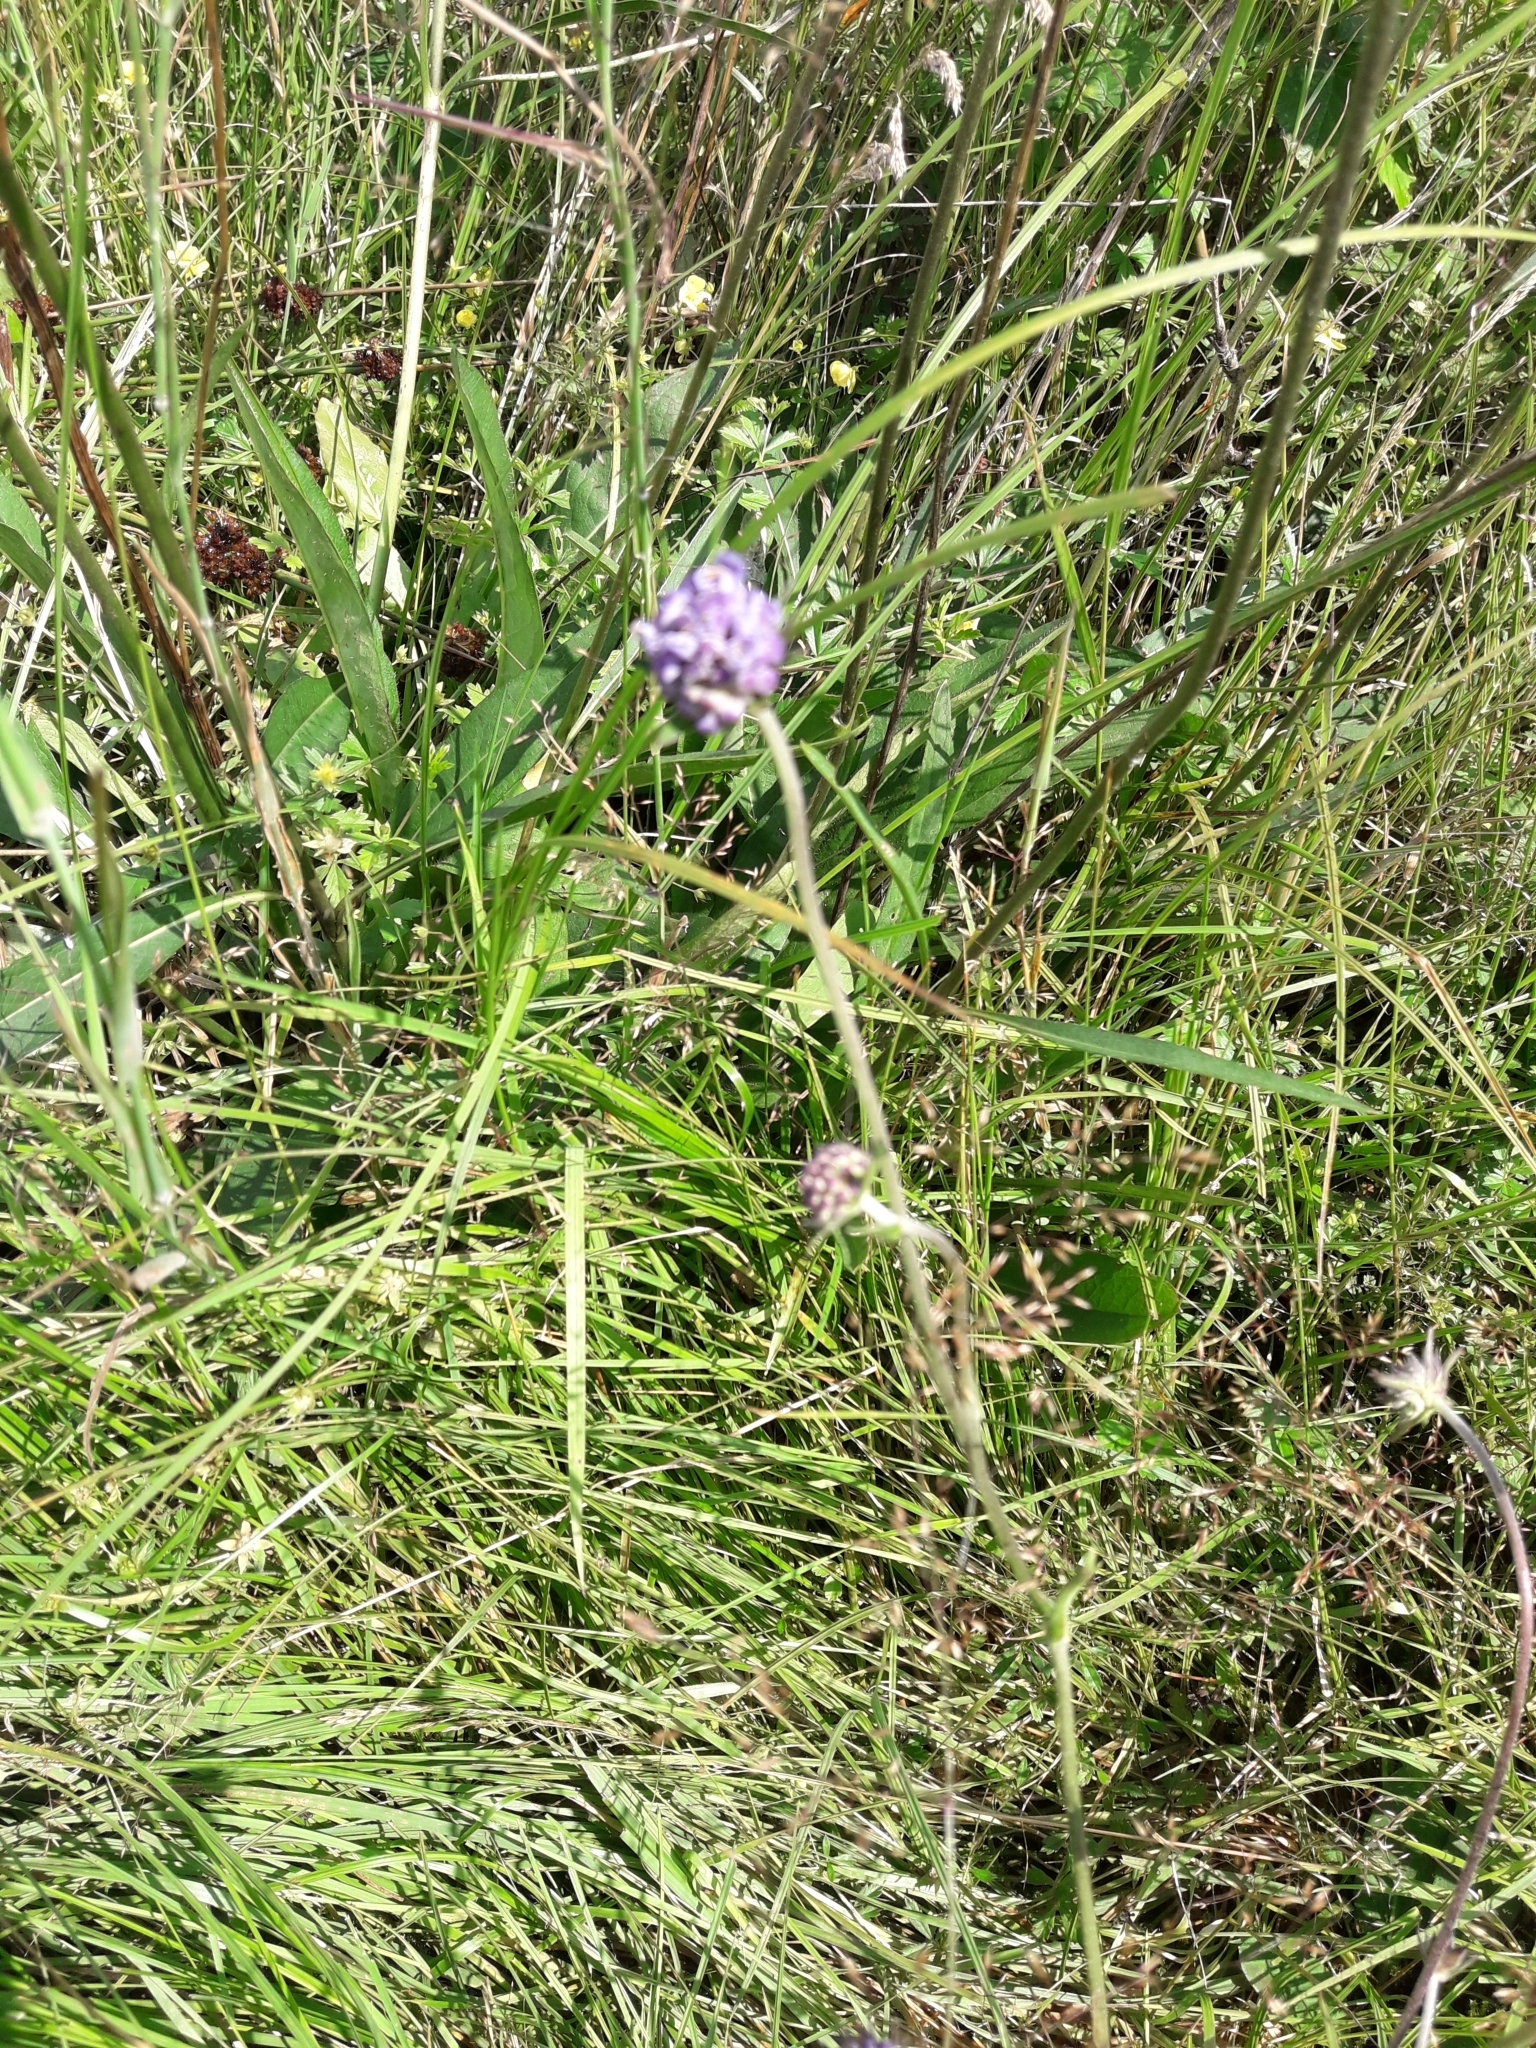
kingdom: Plantae
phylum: Tracheophyta
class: Magnoliopsida
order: Dipsacales
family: Caprifoliaceae
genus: Succisa
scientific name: Succisa pratensis
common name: Devil's-bit
